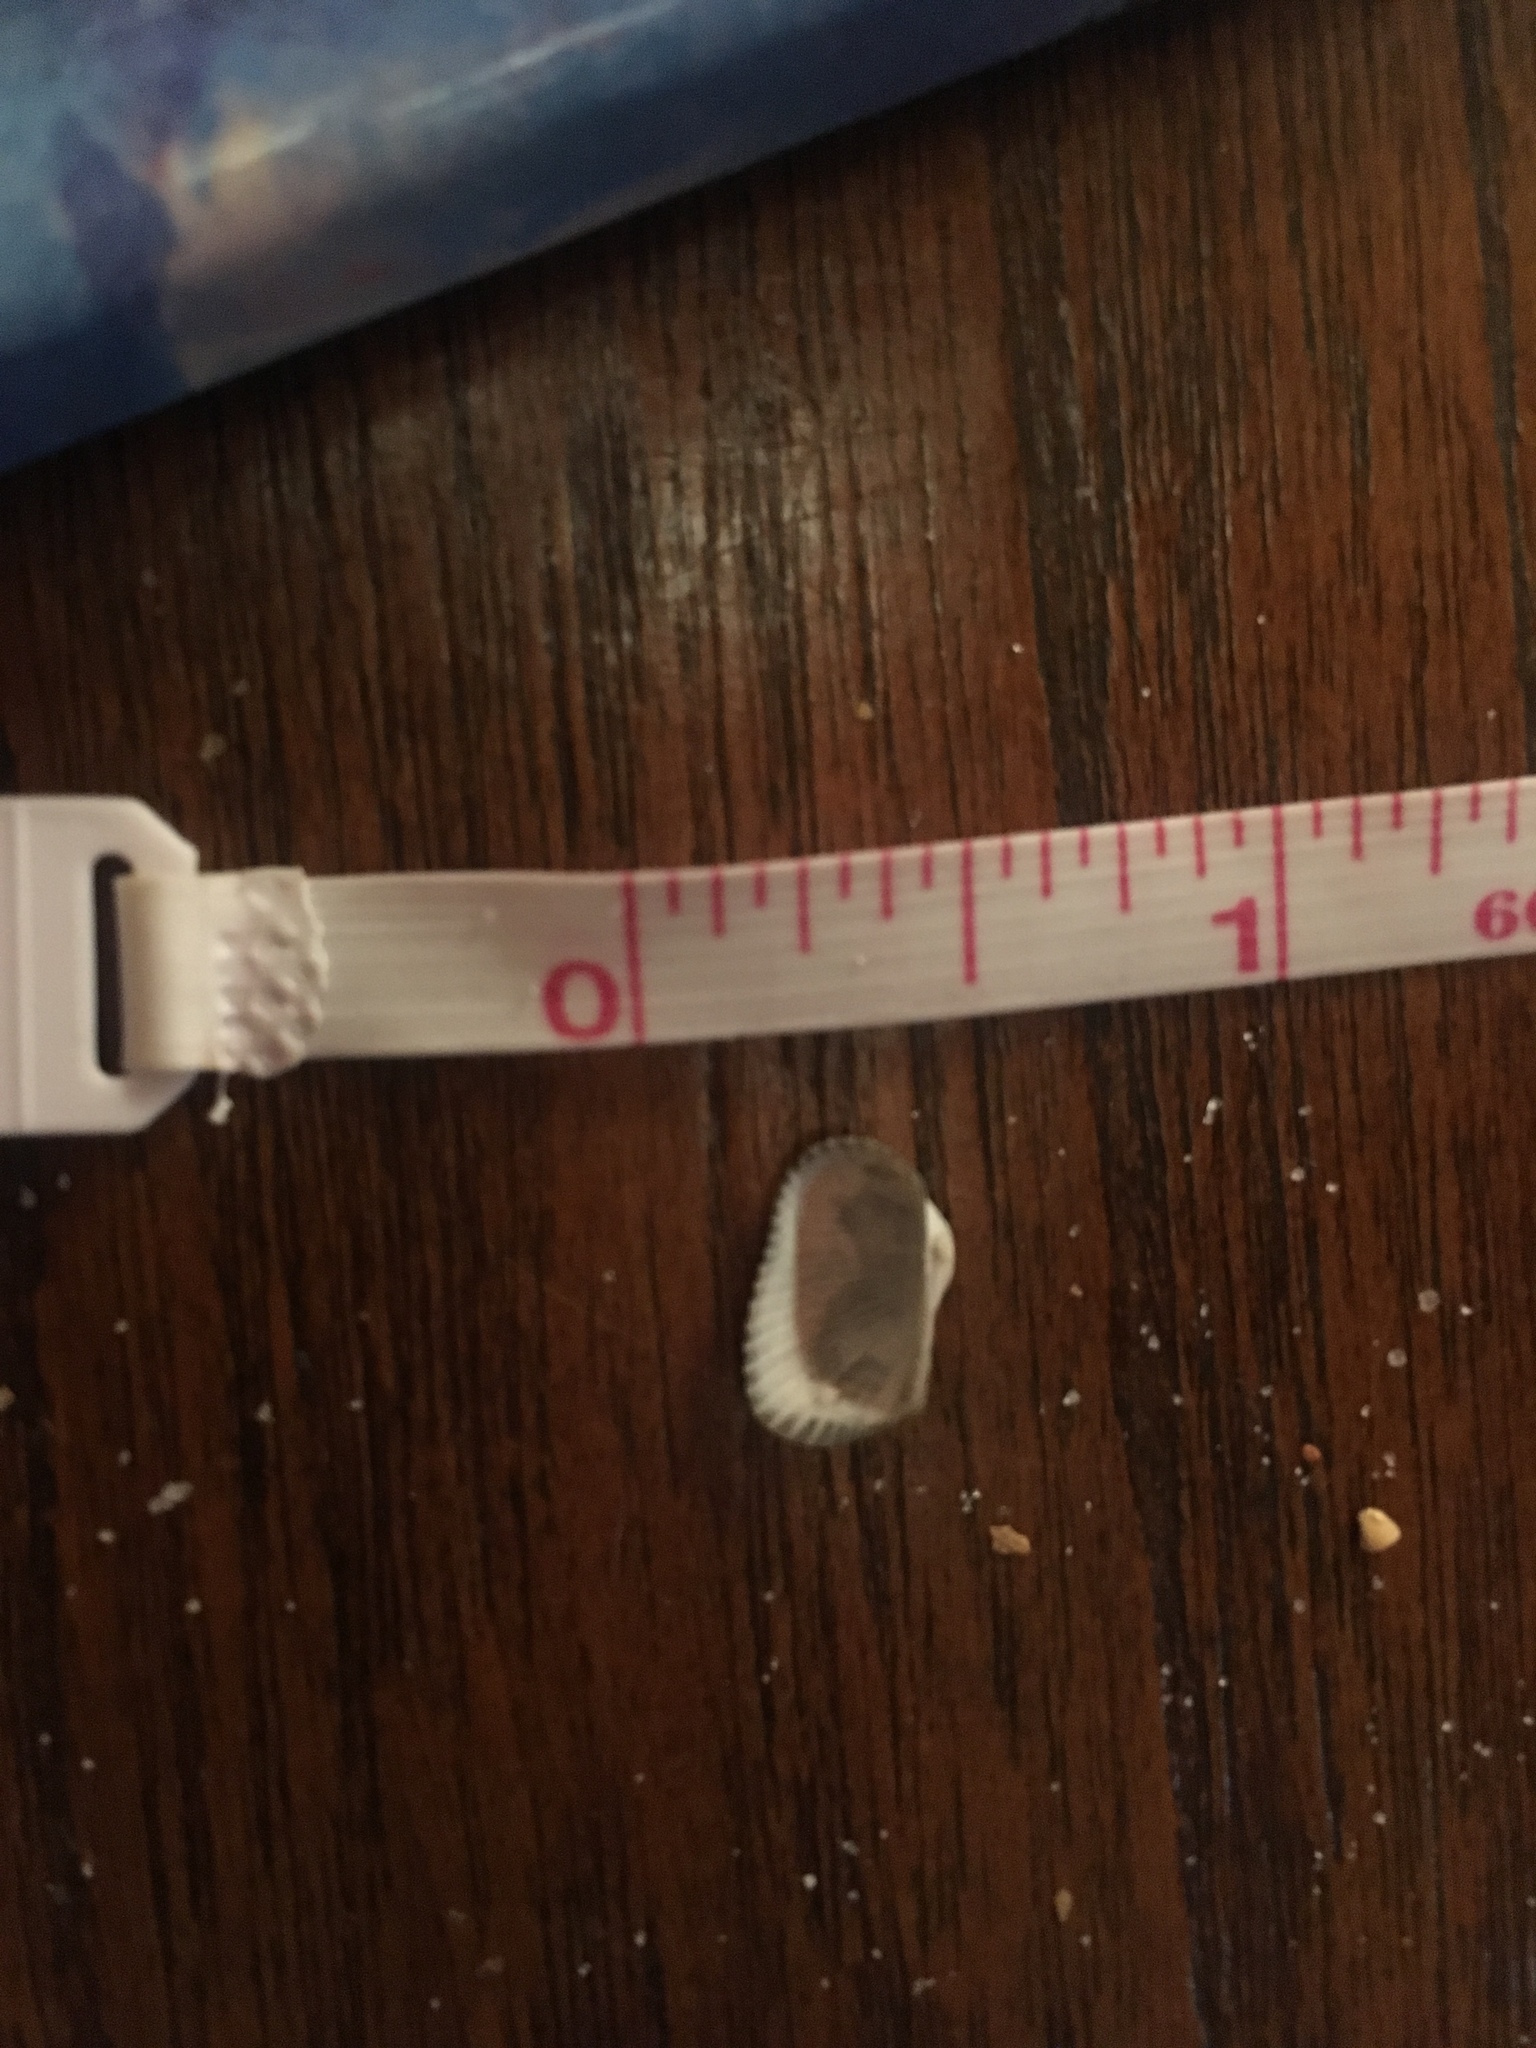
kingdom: Animalia
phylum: Mollusca
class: Bivalvia
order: Arcida
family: Arcidae
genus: Anadara
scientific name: Anadara transversa
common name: Transverse ark
